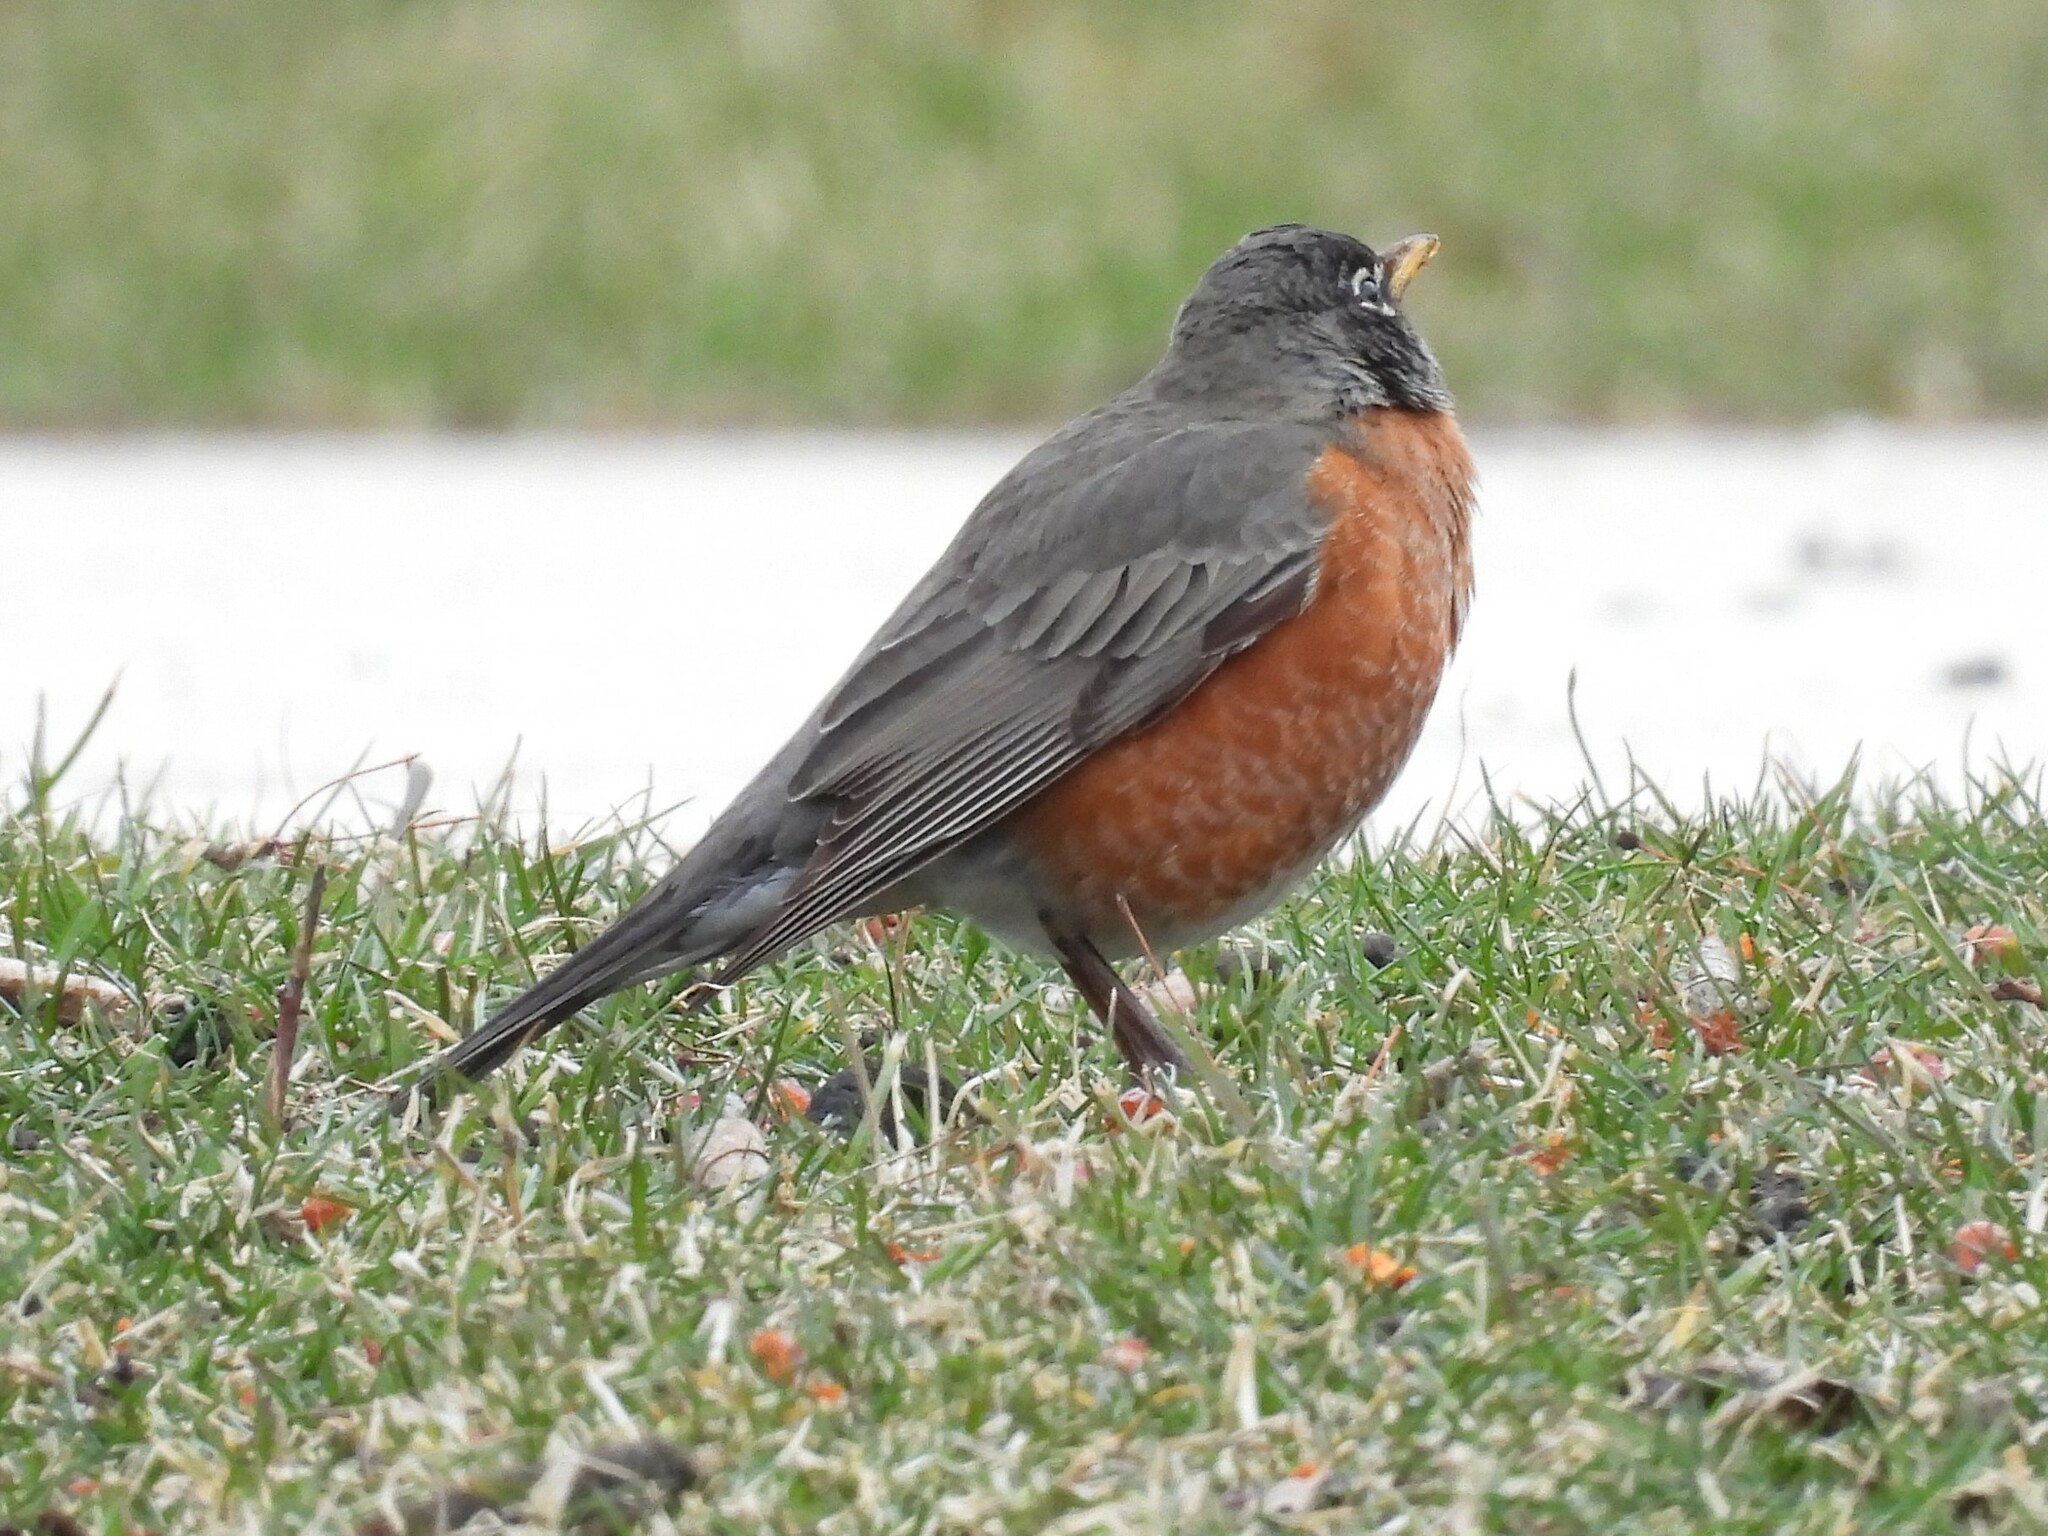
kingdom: Animalia
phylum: Chordata
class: Aves
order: Passeriformes
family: Turdidae
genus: Turdus
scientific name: Turdus migratorius
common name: American robin
